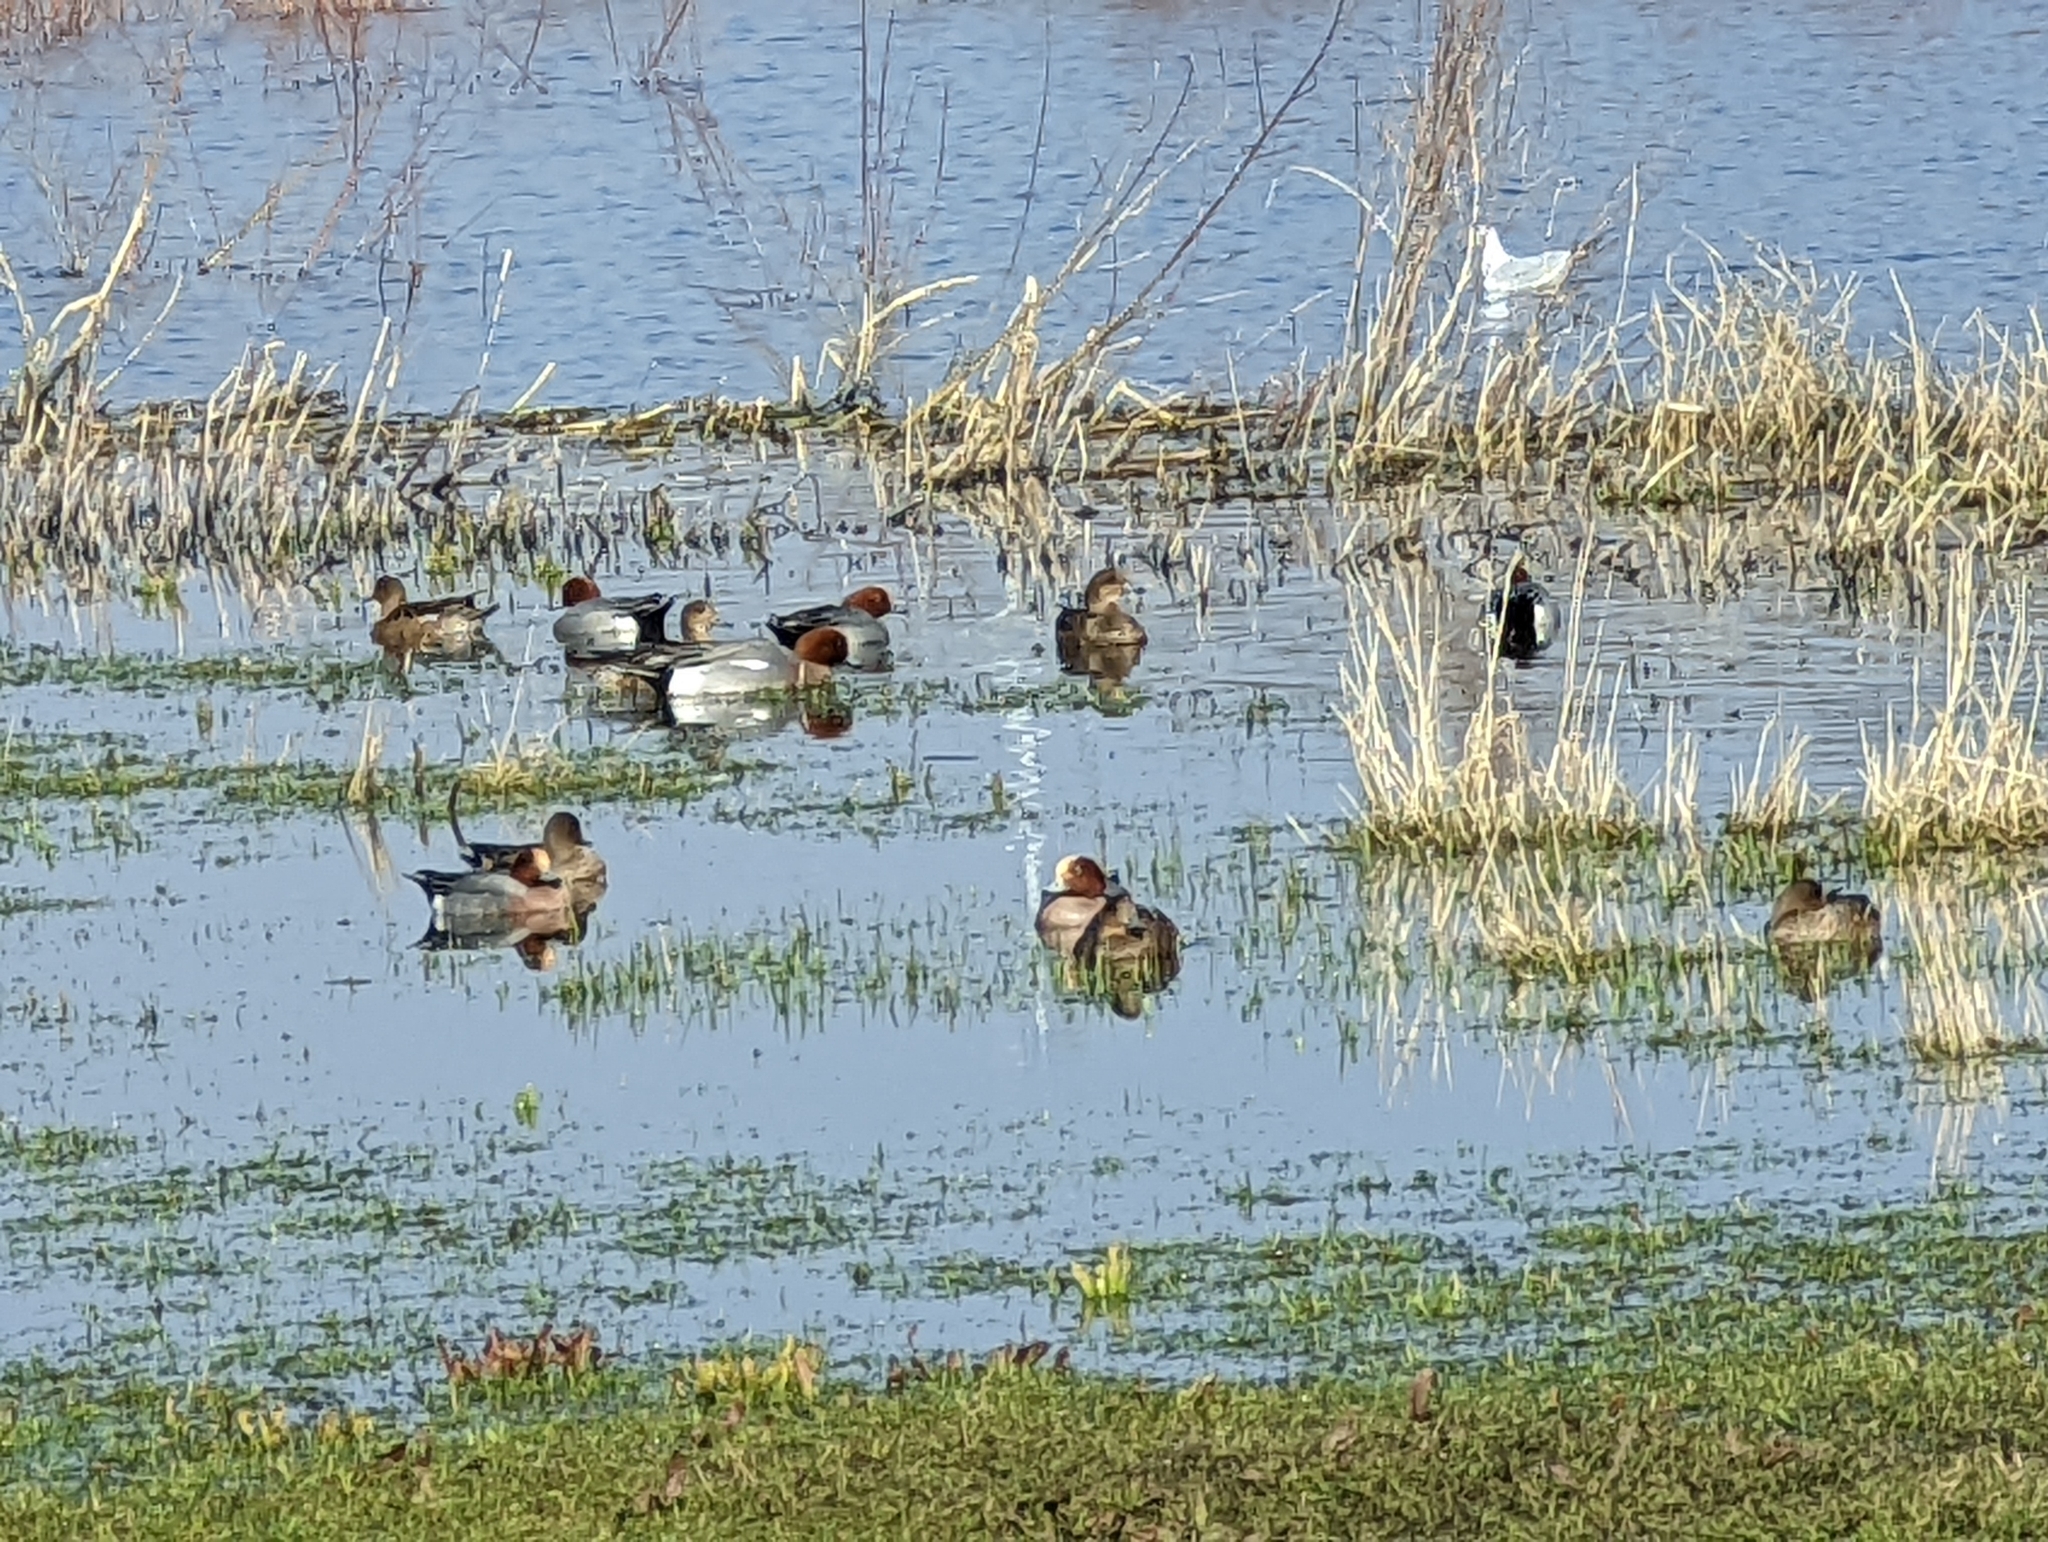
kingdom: Animalia
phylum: Chordata
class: Aves
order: Anseriformes
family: Anatidae
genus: Mareca
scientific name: Mareca penelope
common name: Eurasian wigeon
